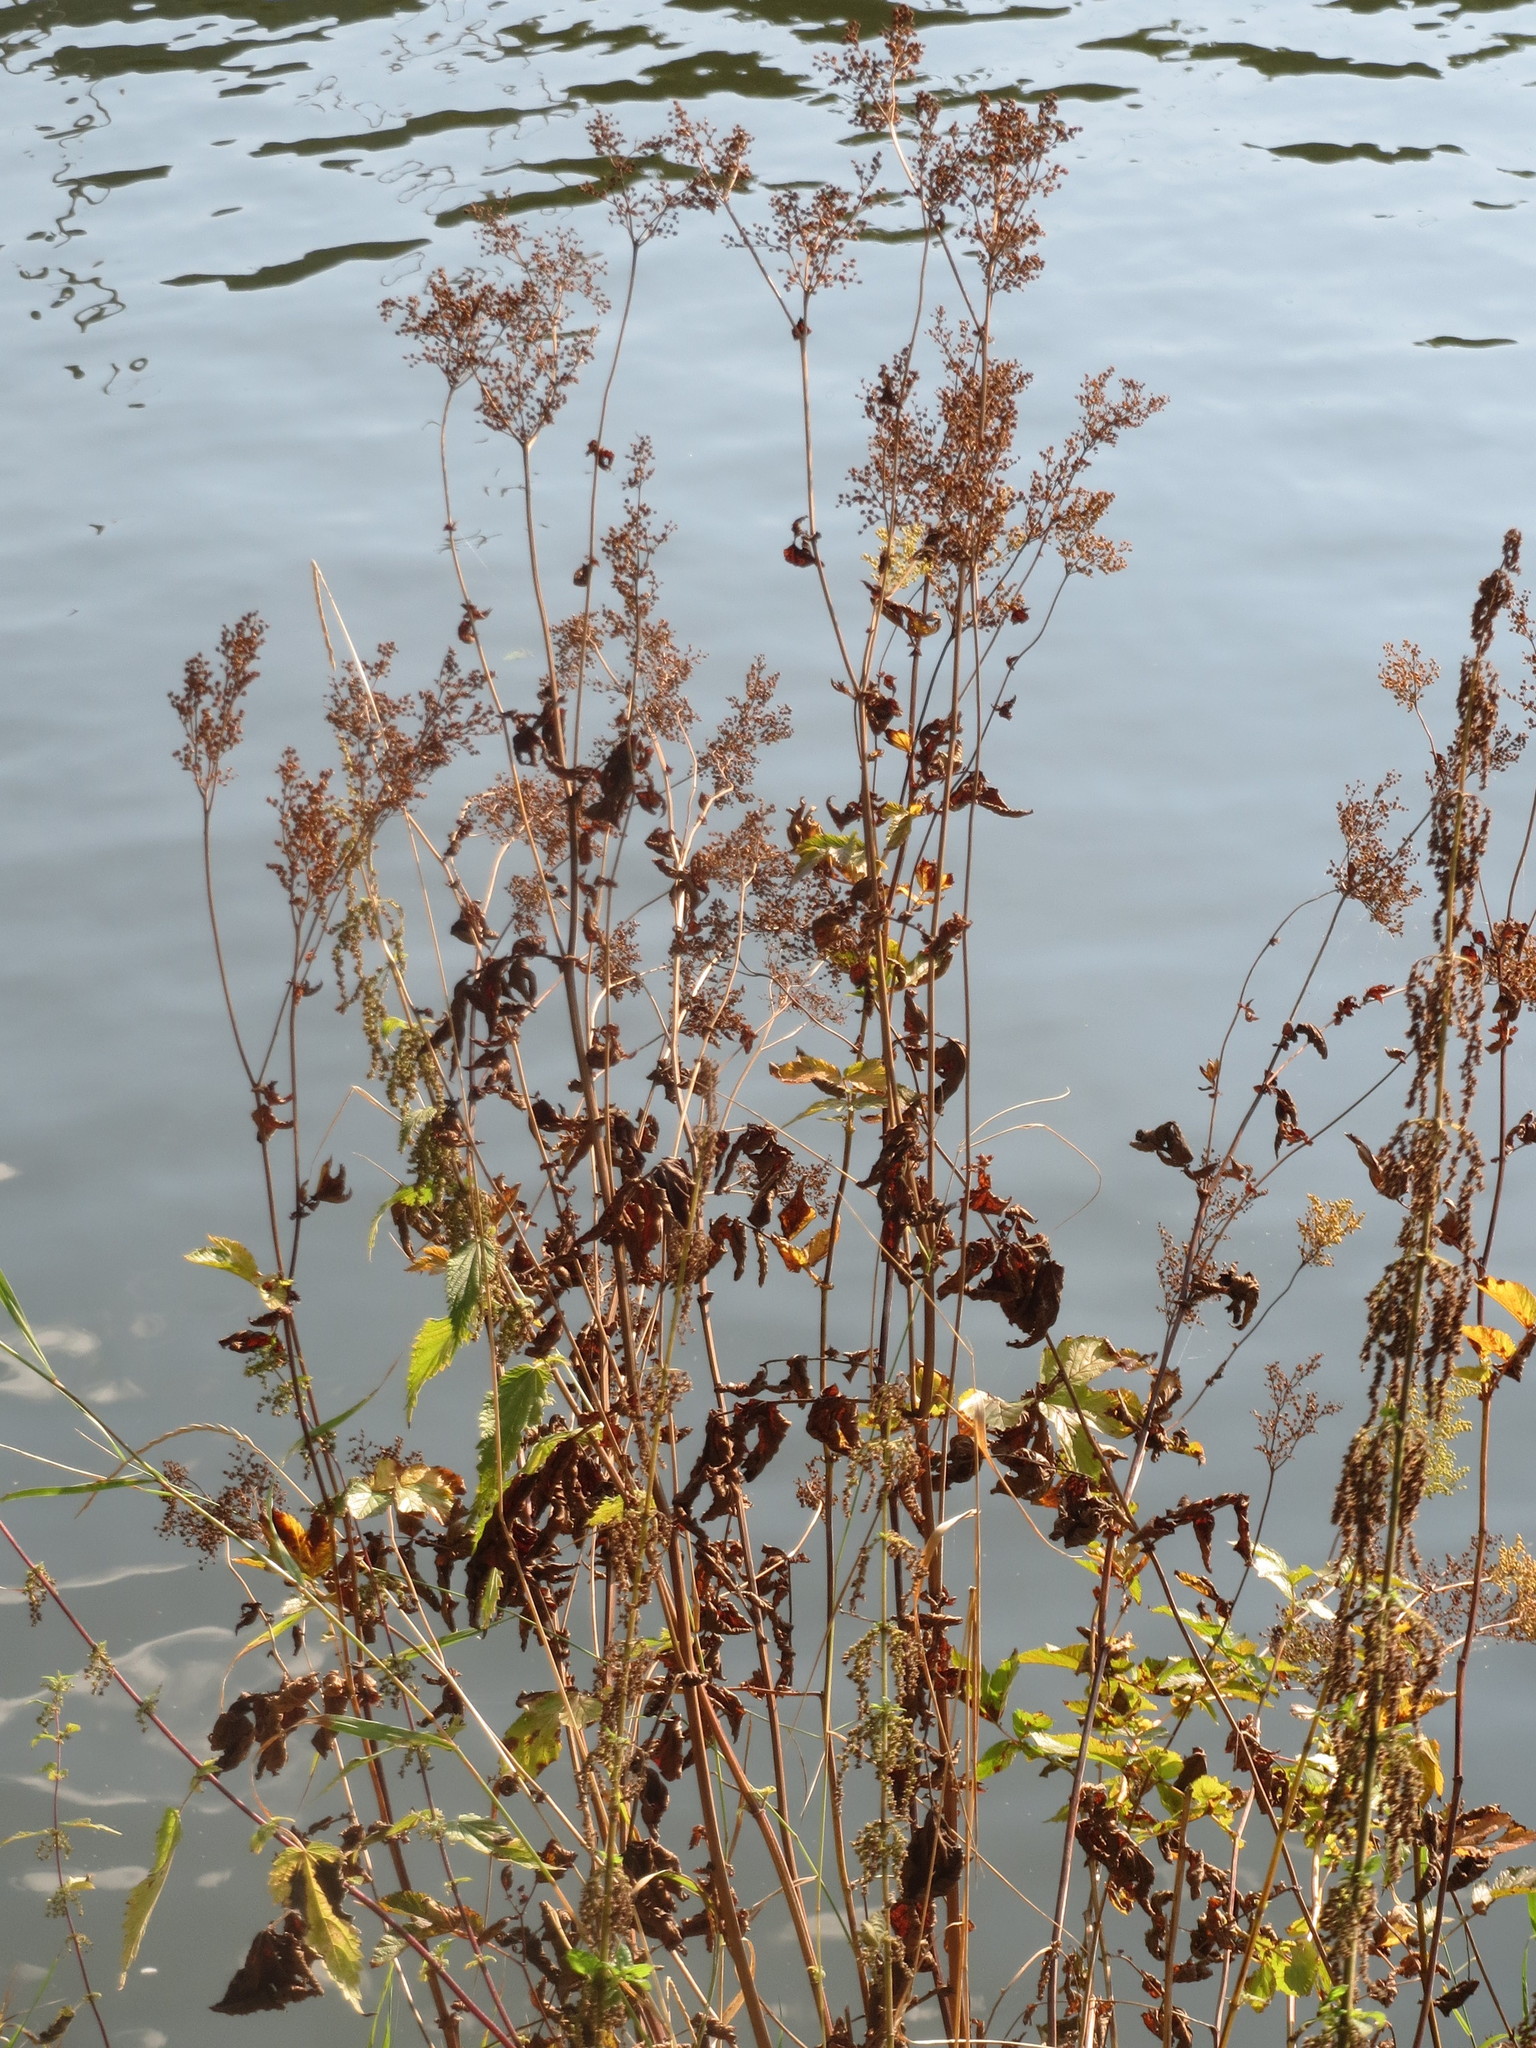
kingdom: Plantae
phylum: Tracheophyta
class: Magnoliopsida
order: Rosales
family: Rosaceae
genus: Filipendula
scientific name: Filipendula ulmaria
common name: Meadowsweet
